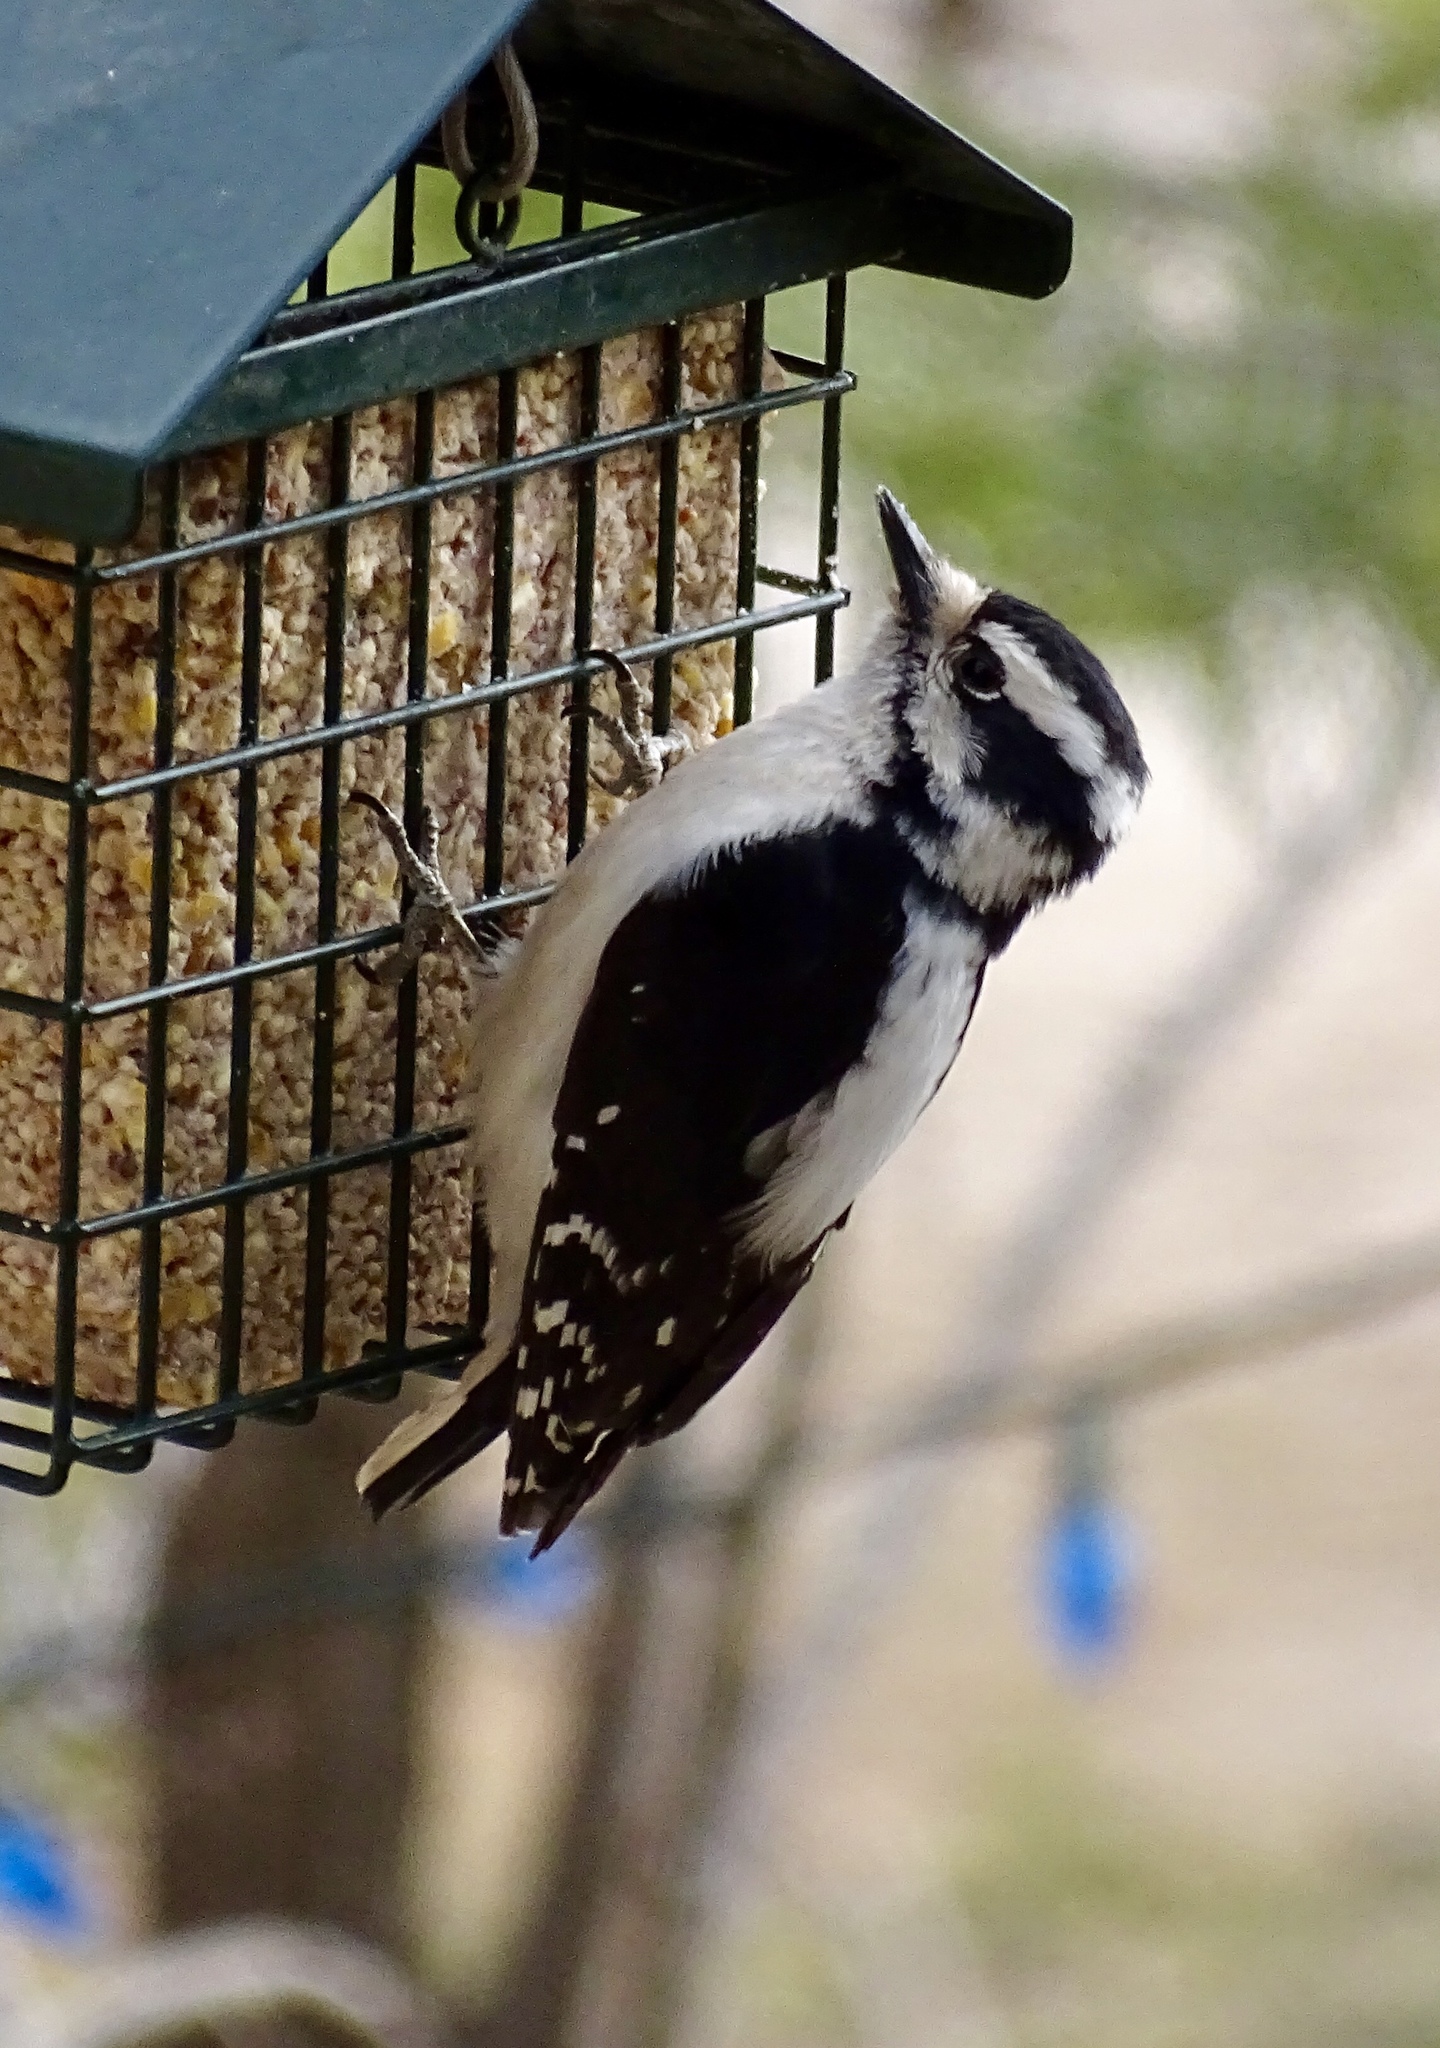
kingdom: Animalia
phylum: Chordata
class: Aves
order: Piciformes
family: Picidae
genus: Dryobates
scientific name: Dryobates pubescens
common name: Downy woodpecker
